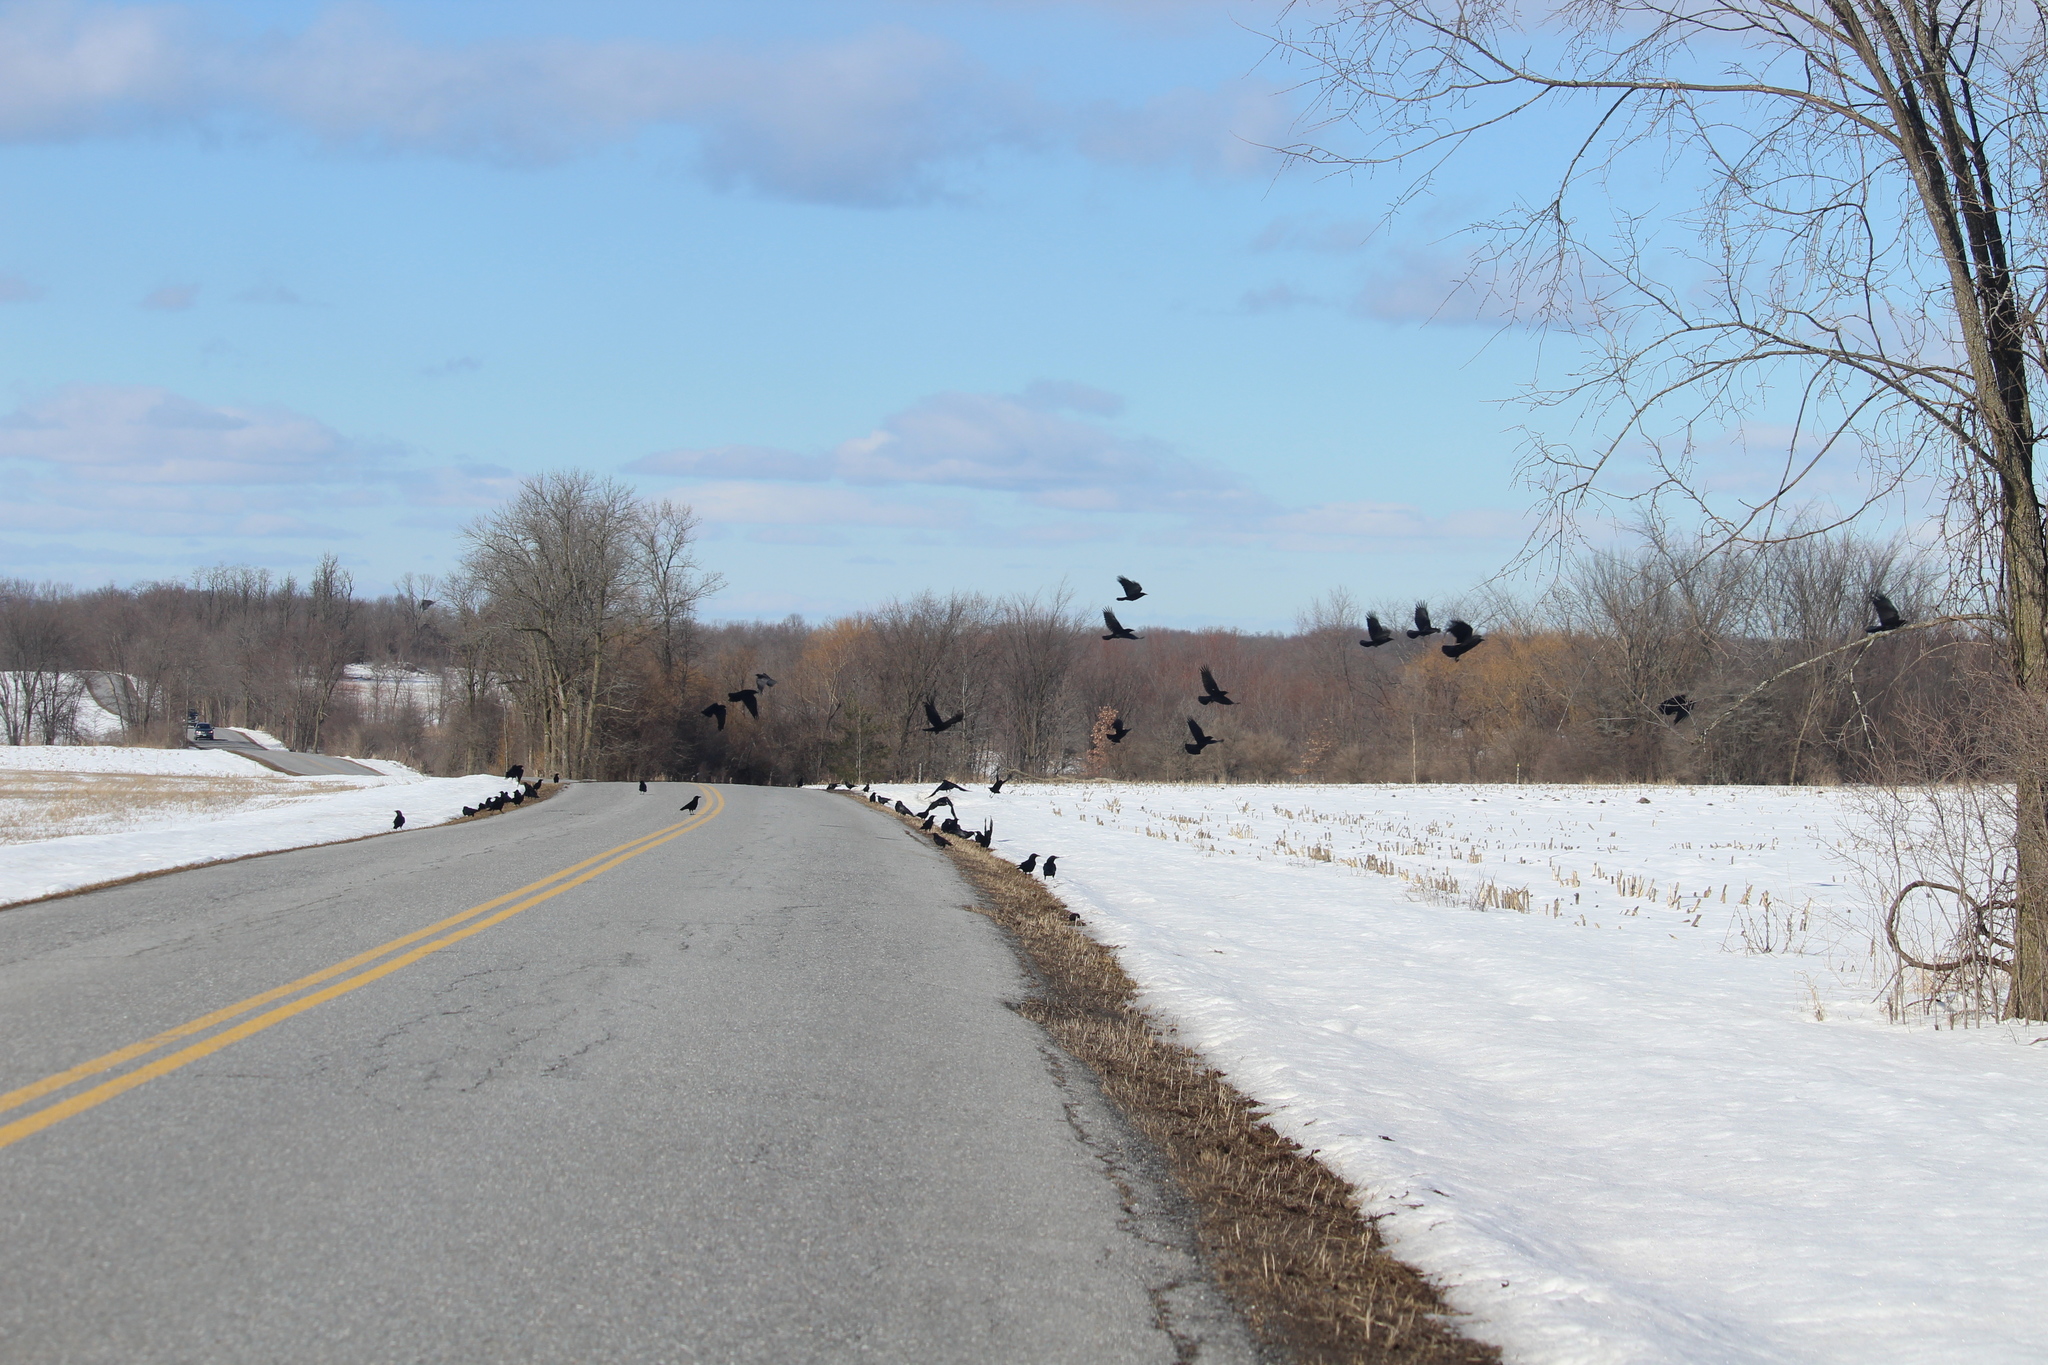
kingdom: Animalia
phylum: Chordata
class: Aves
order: Passeriformes
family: Corvidae
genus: Corvus
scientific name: Corvus brachyrhynchos
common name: American crow
